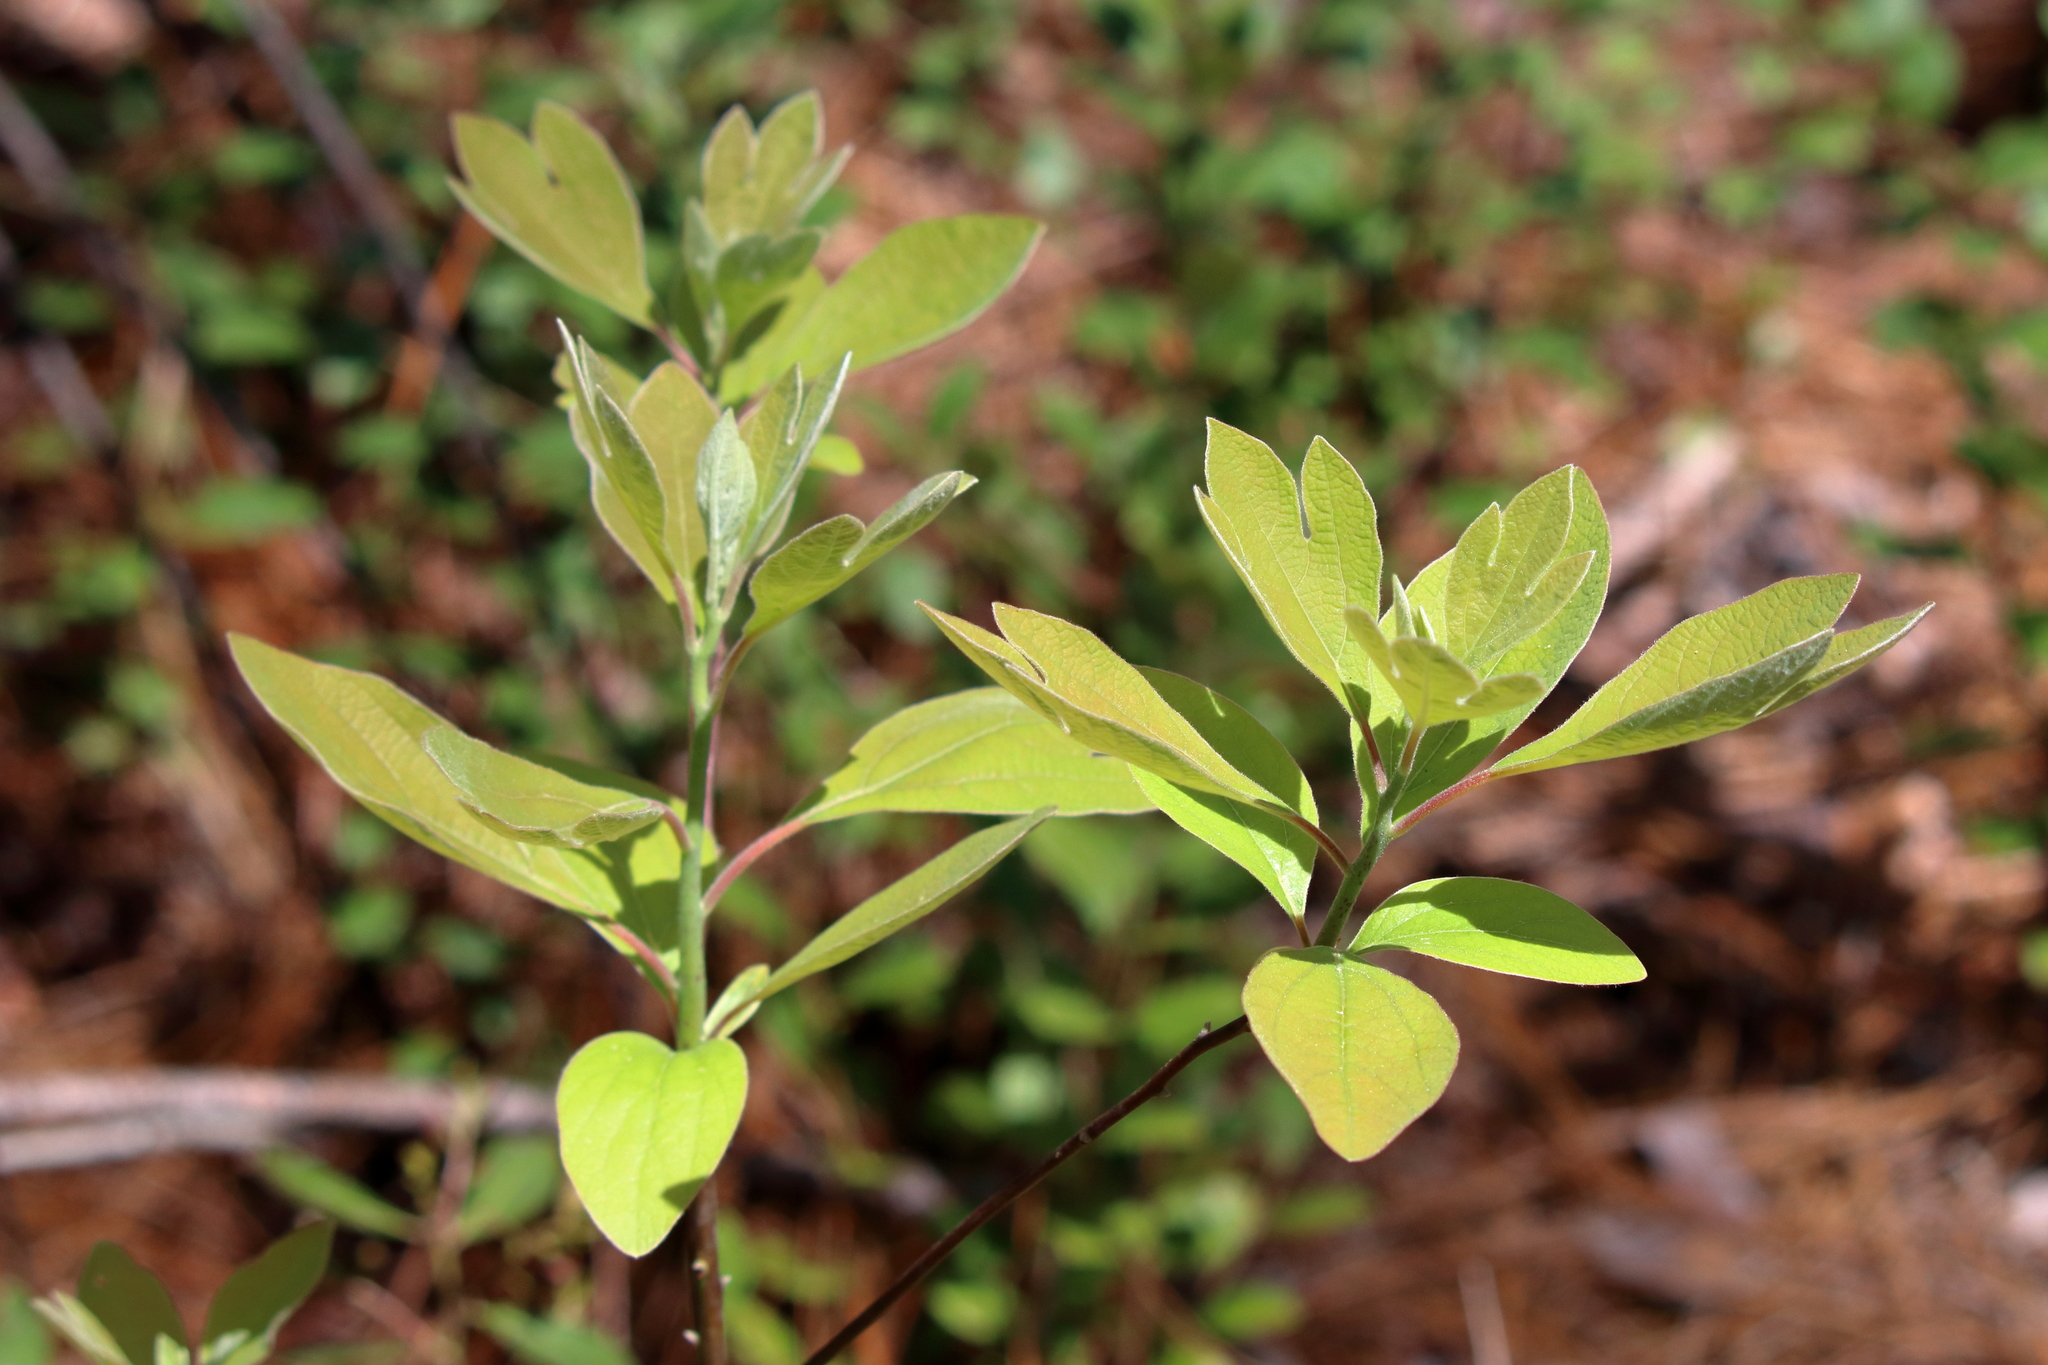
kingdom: Plantae
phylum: Tracheophyta
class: Magnoliopsida
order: Laurales
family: Lauraceae
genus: Sassafras
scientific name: Sassafras albidum
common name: Sassafras
